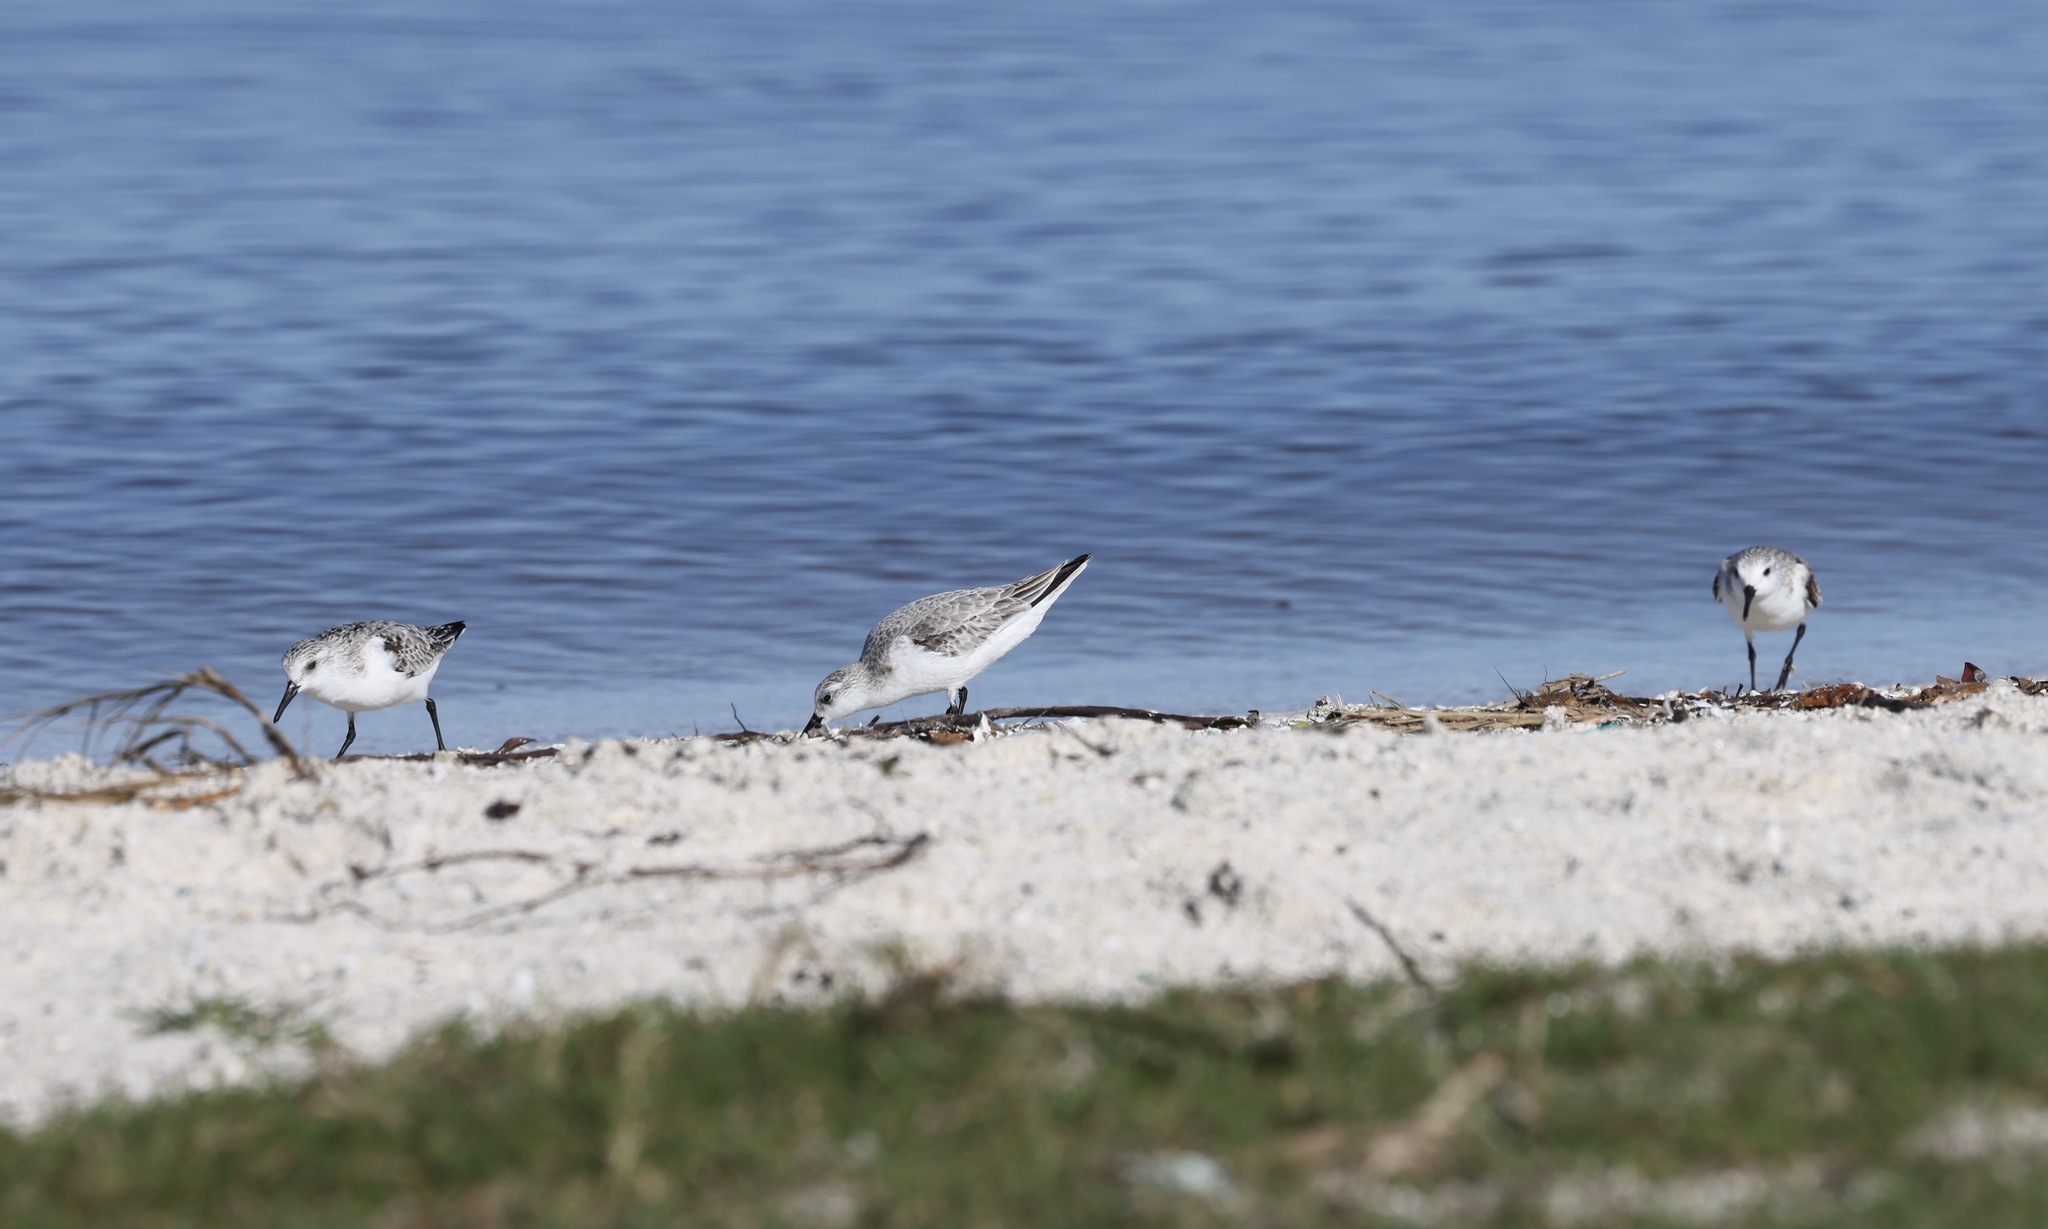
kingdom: Animalia
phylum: Chordata
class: Aves
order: Charadriiformes
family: Scolopacidae
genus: Calidris
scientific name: Calidris alba
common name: Sanderling
